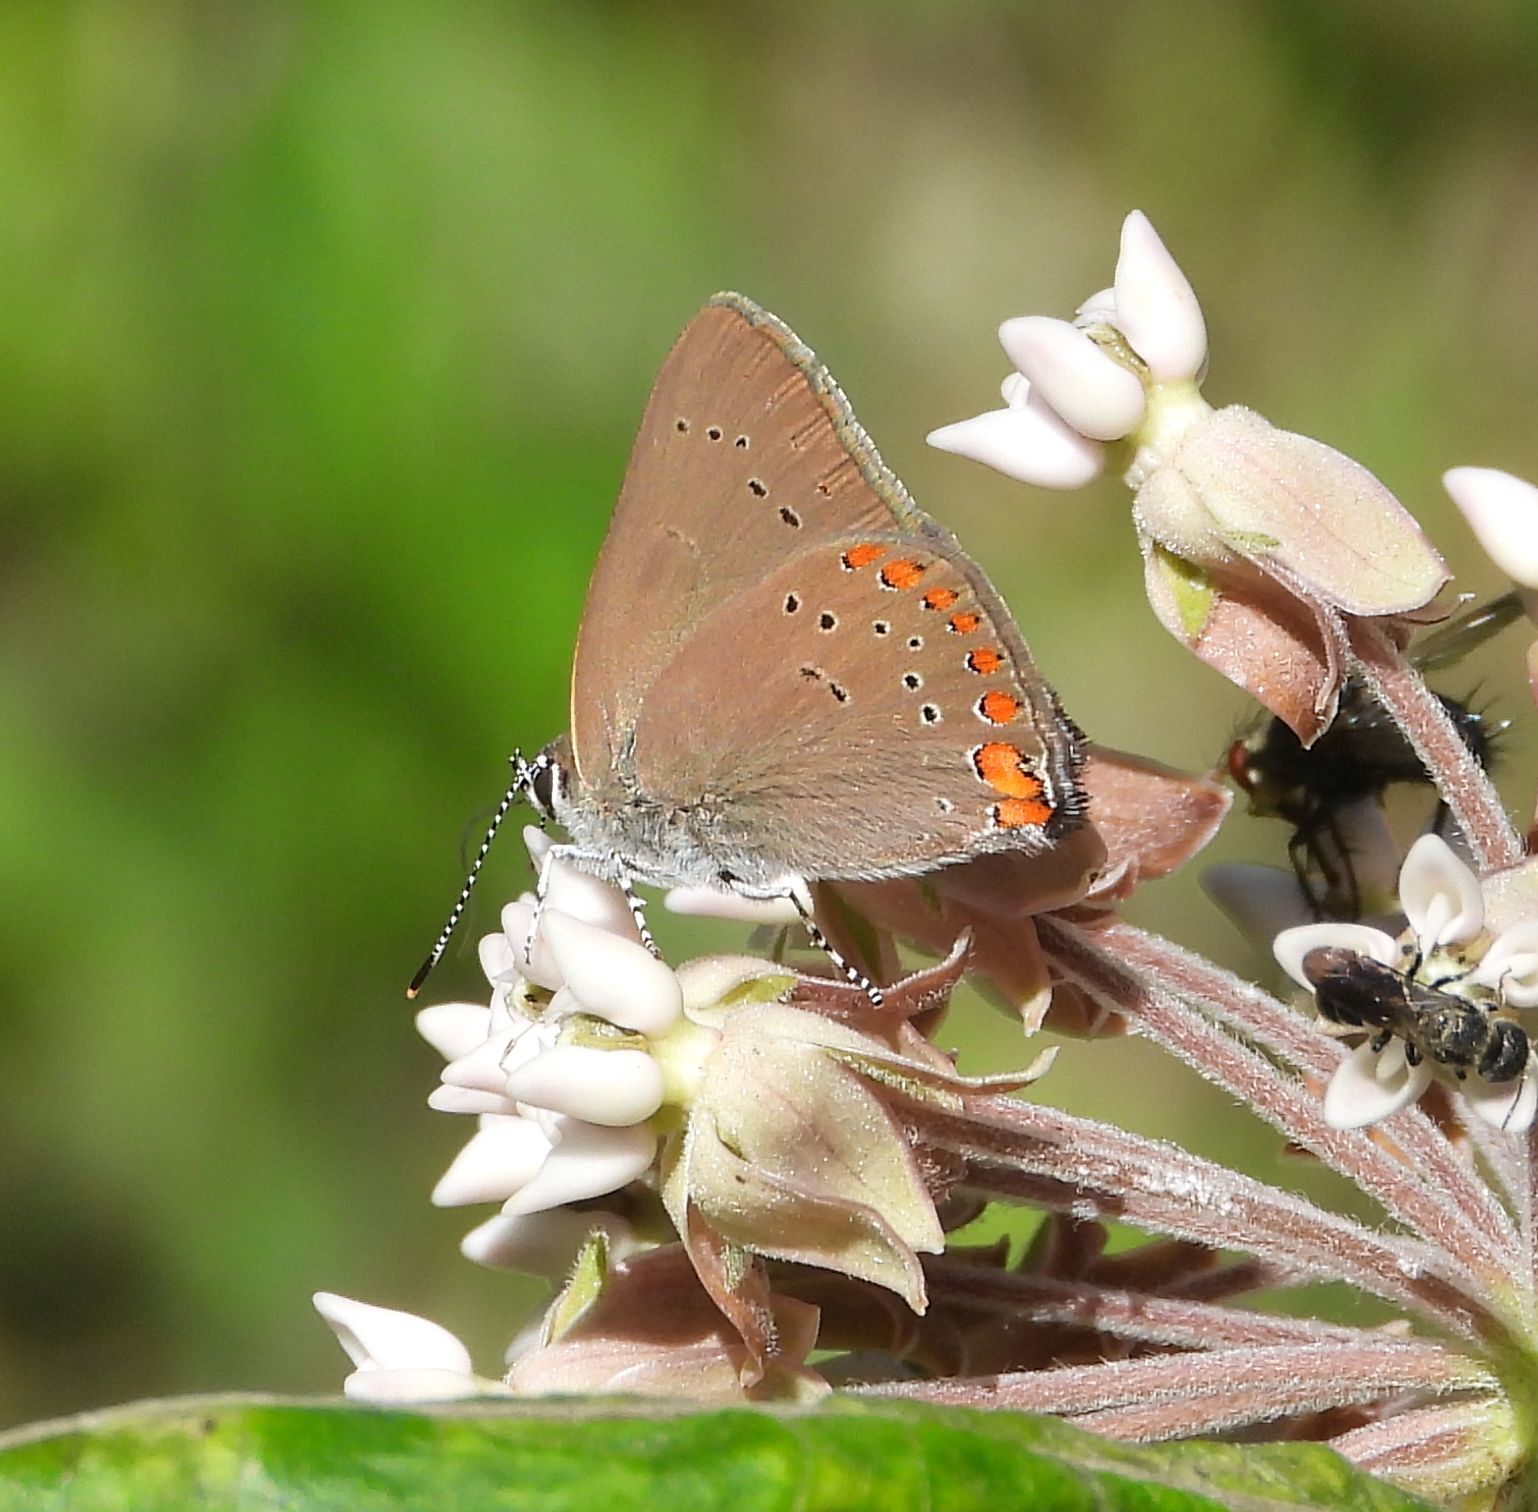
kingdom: Animalia
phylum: Arthropoda
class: Insecta
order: Lepidoptera
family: Lycaenidae
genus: Harkenclenus
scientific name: Harkenclenus titus
